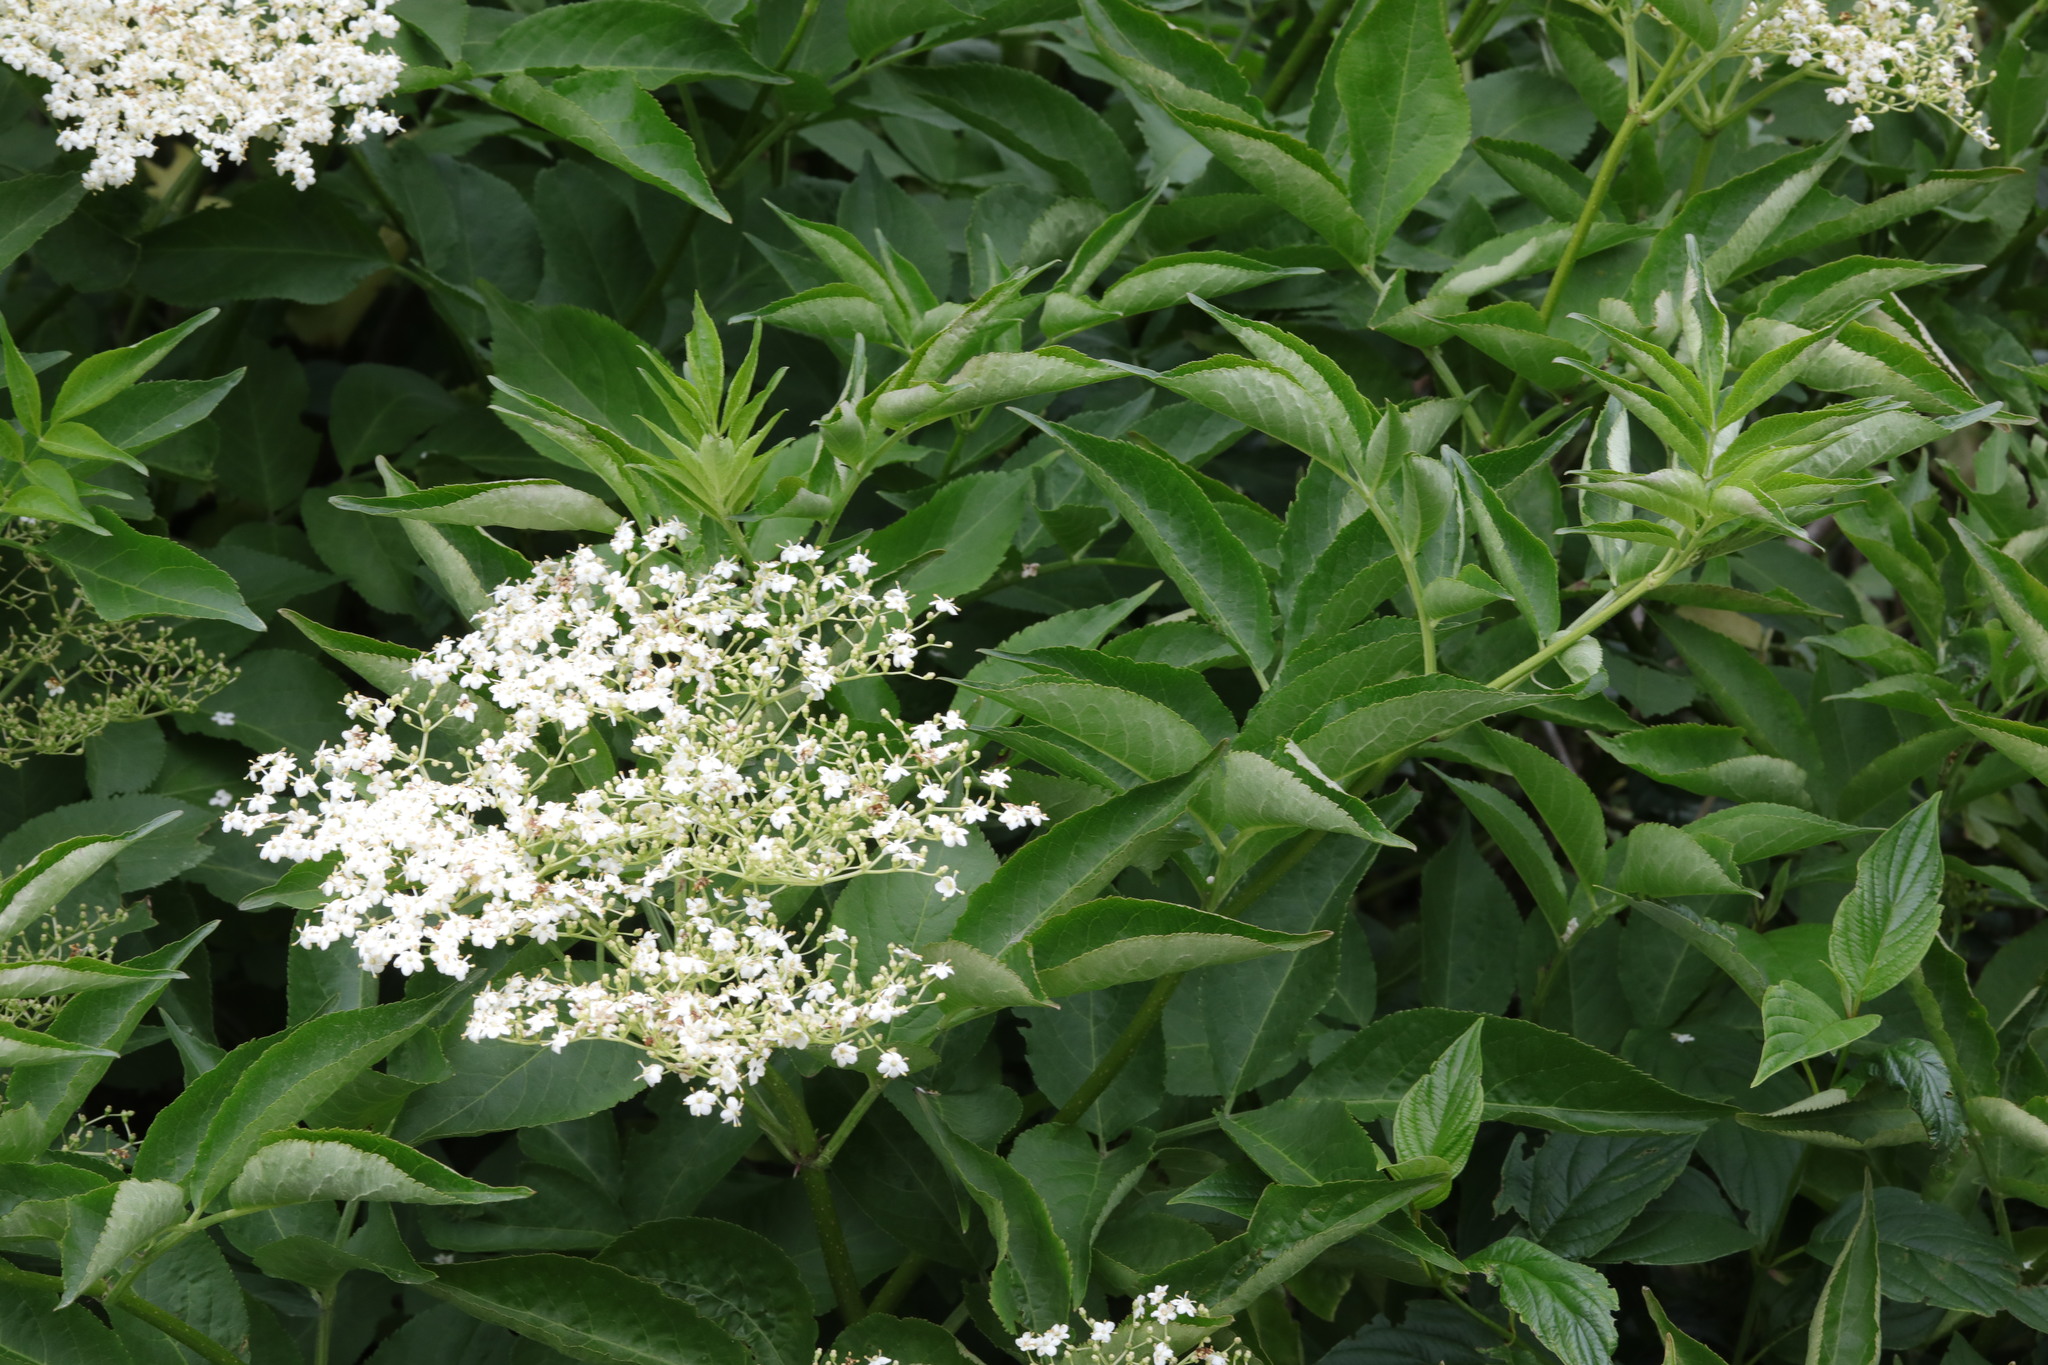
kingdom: Plantae
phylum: Tracheophyta
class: Magnoliopsida
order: Dipsacales
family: Viburnaceae
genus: Sambucus
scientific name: Sambucus nigra
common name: Elder
